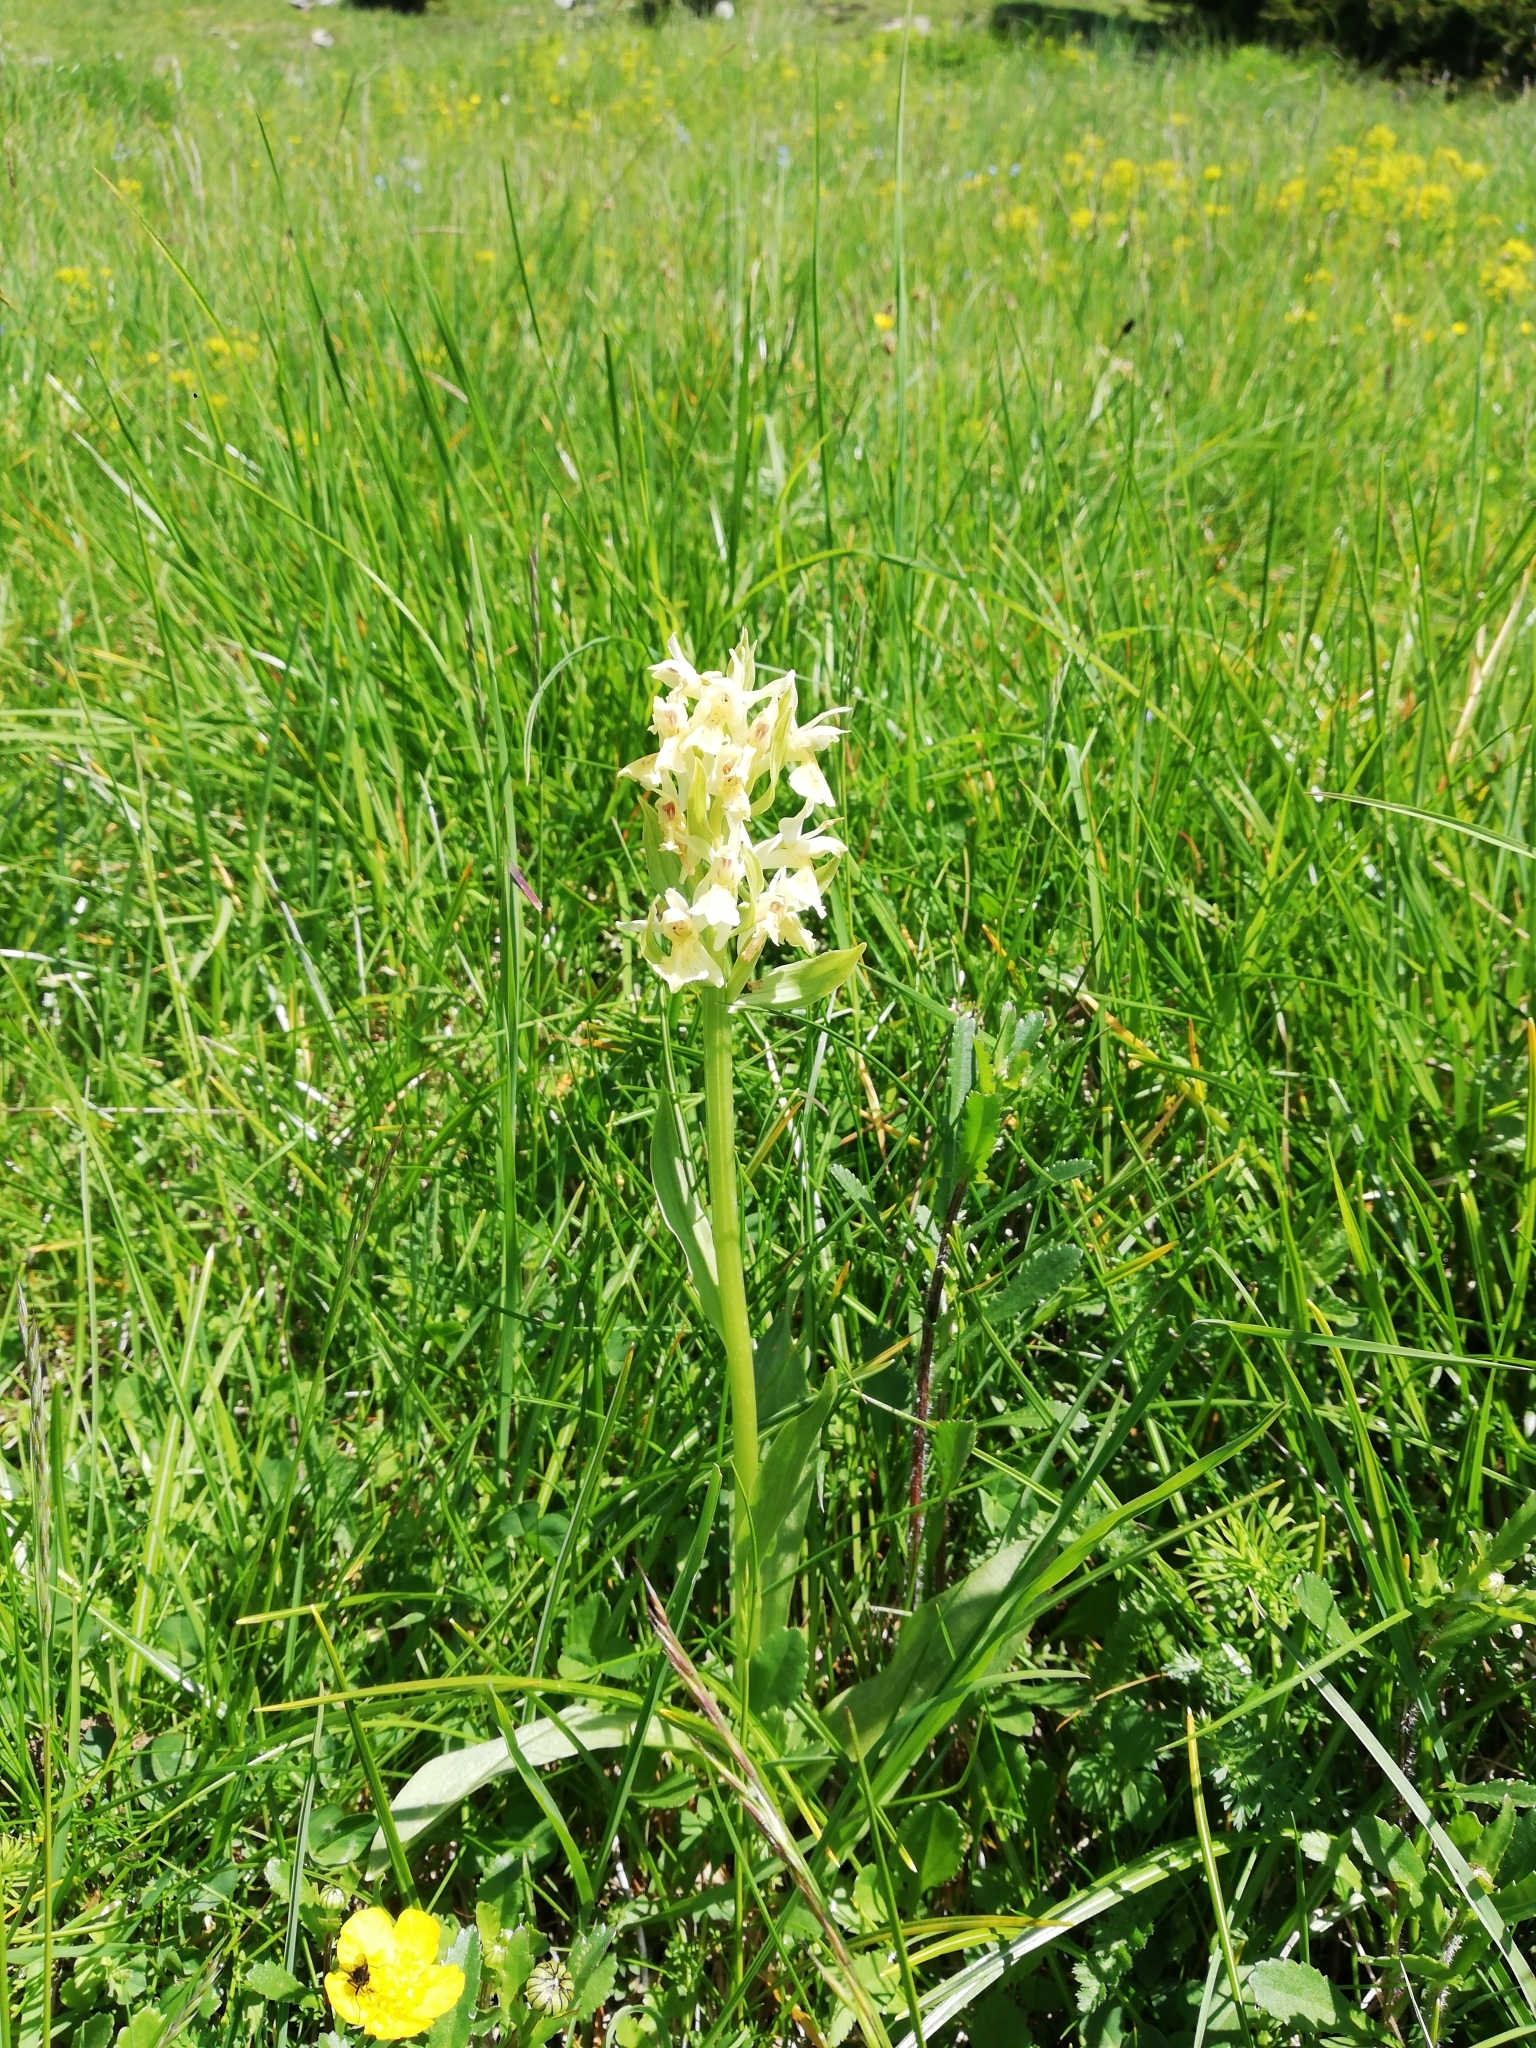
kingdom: Plantae
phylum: Tracheophyta
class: Liliopsida
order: Asparagales
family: Orchidaceae
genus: Dactylorhiza
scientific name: Dactylorhiza sambucina
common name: Elder-flowered orchid
